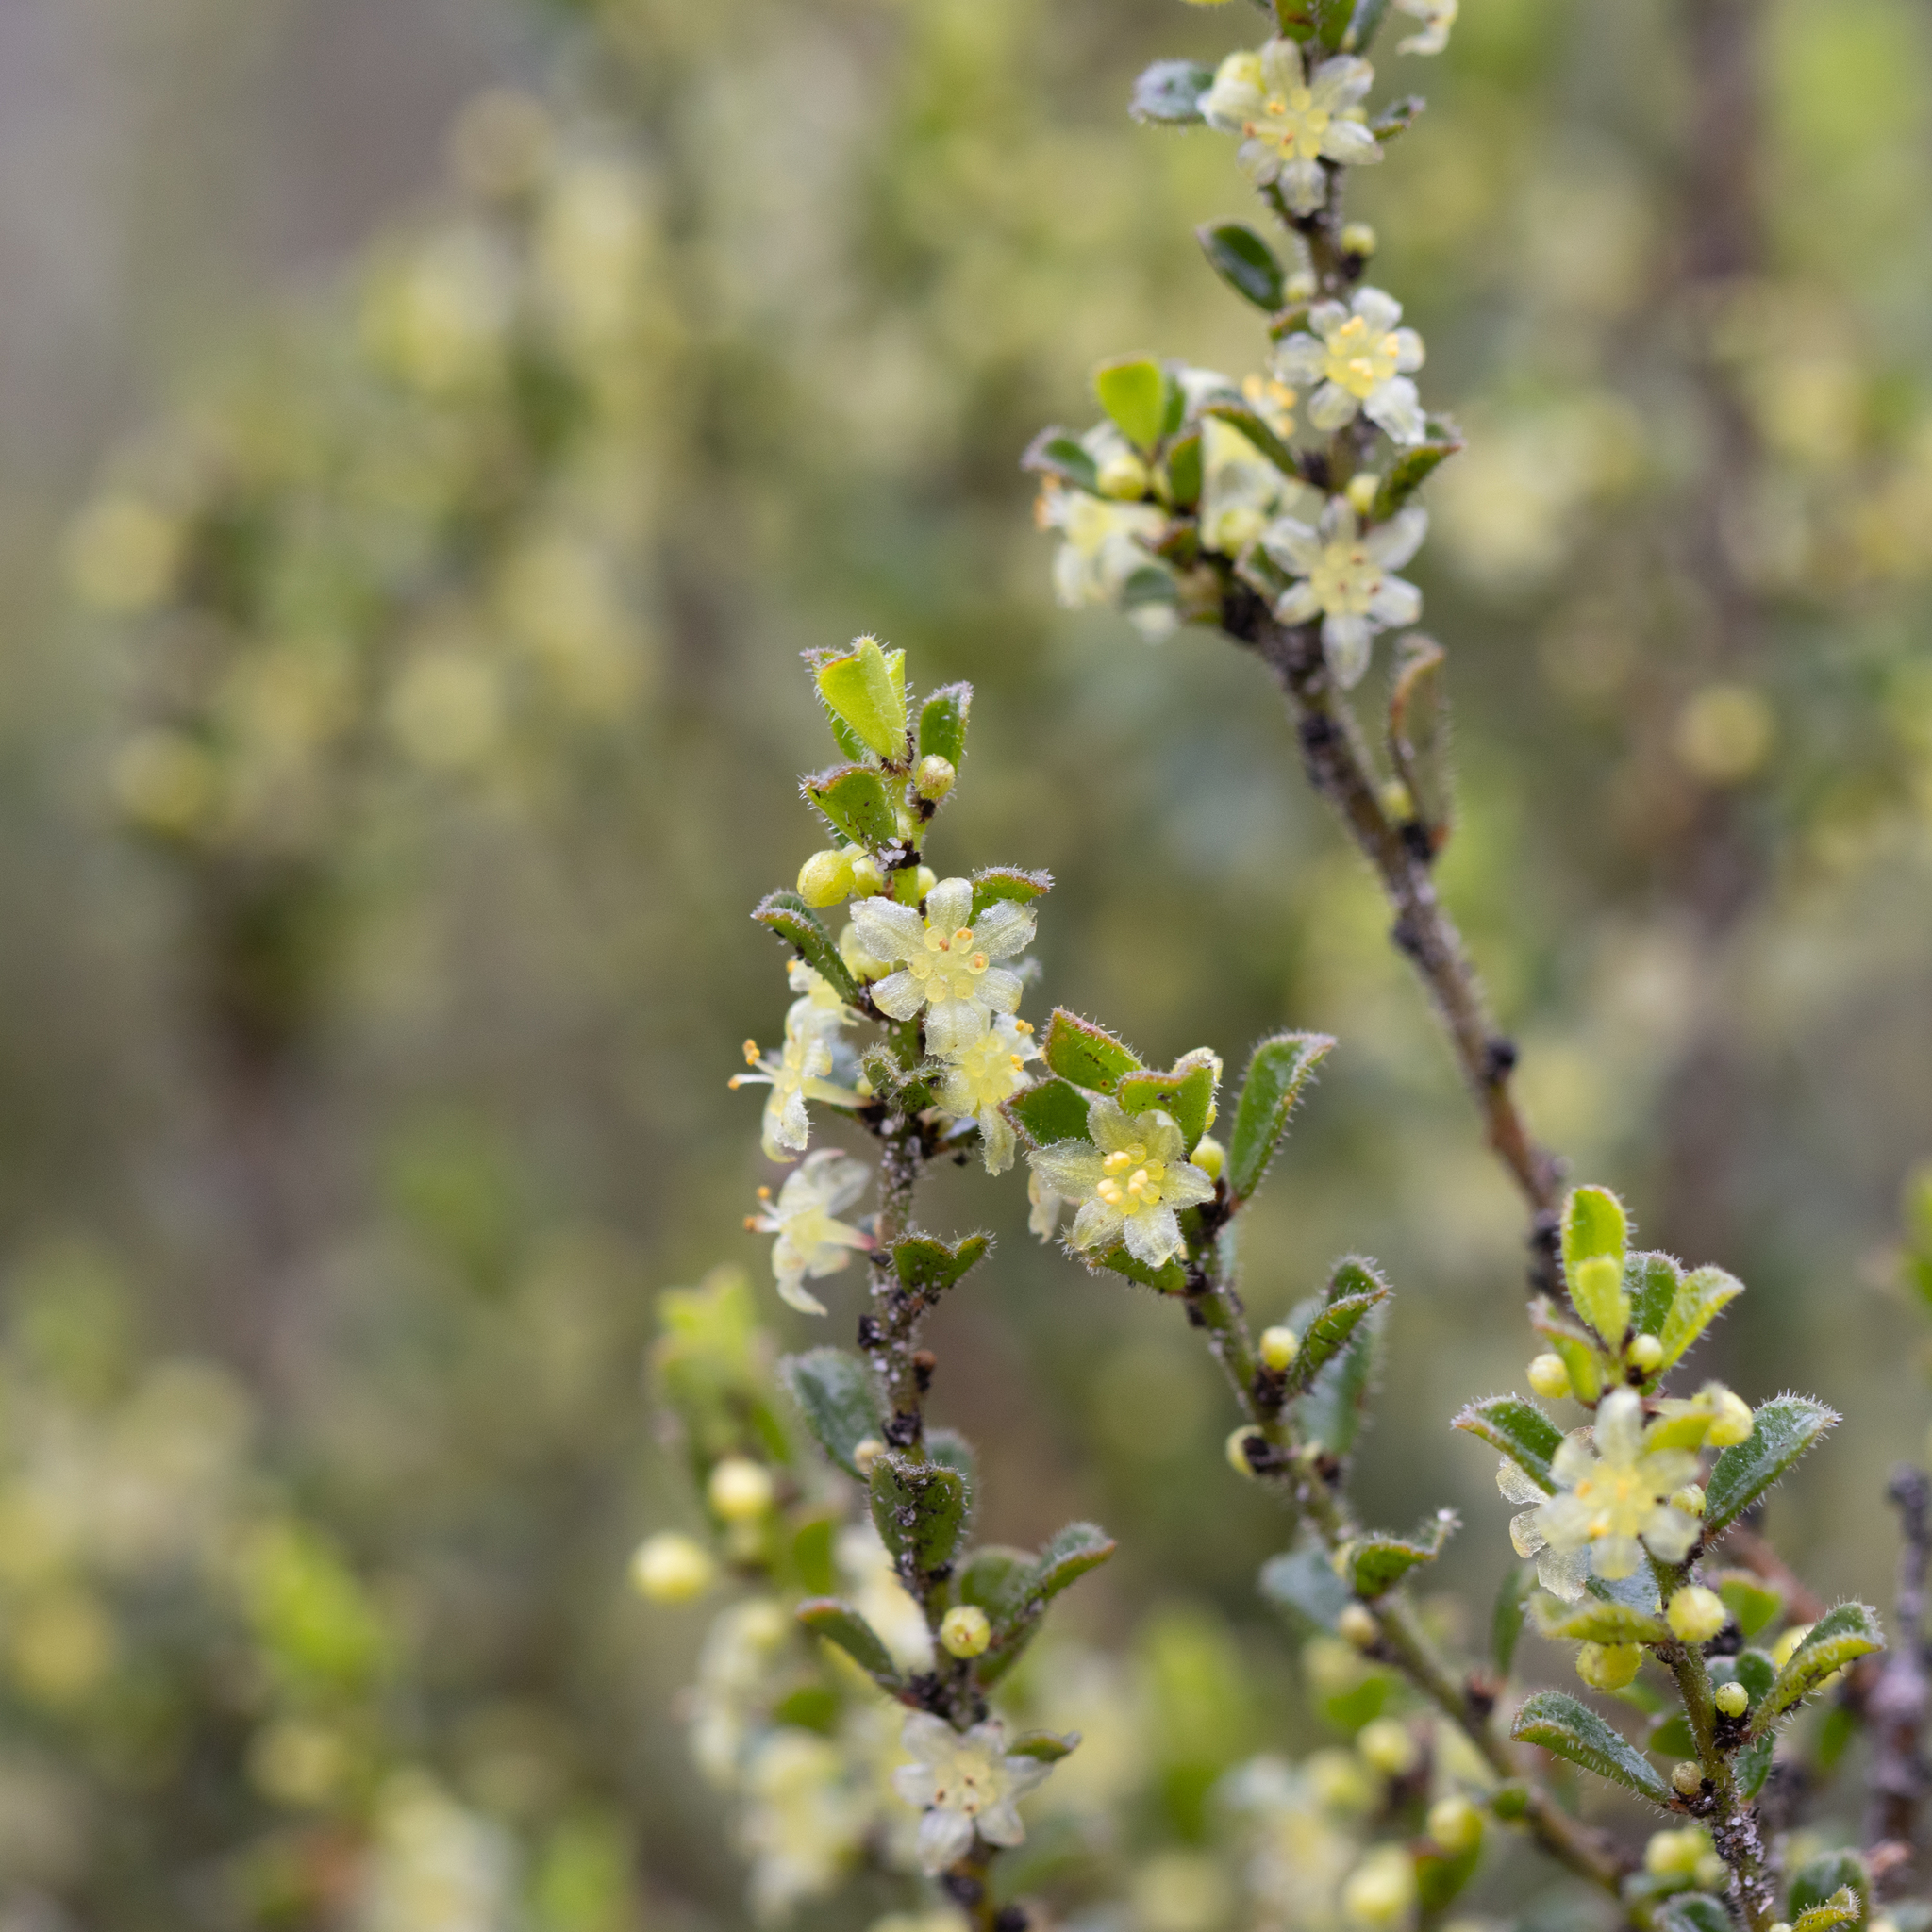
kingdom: Plantae
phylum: Tracheophyta
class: Magnoliopsida
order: Malpighiales
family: Phyllanthaceae
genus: Phyllanthus
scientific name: Phyllanthus hirtellus
